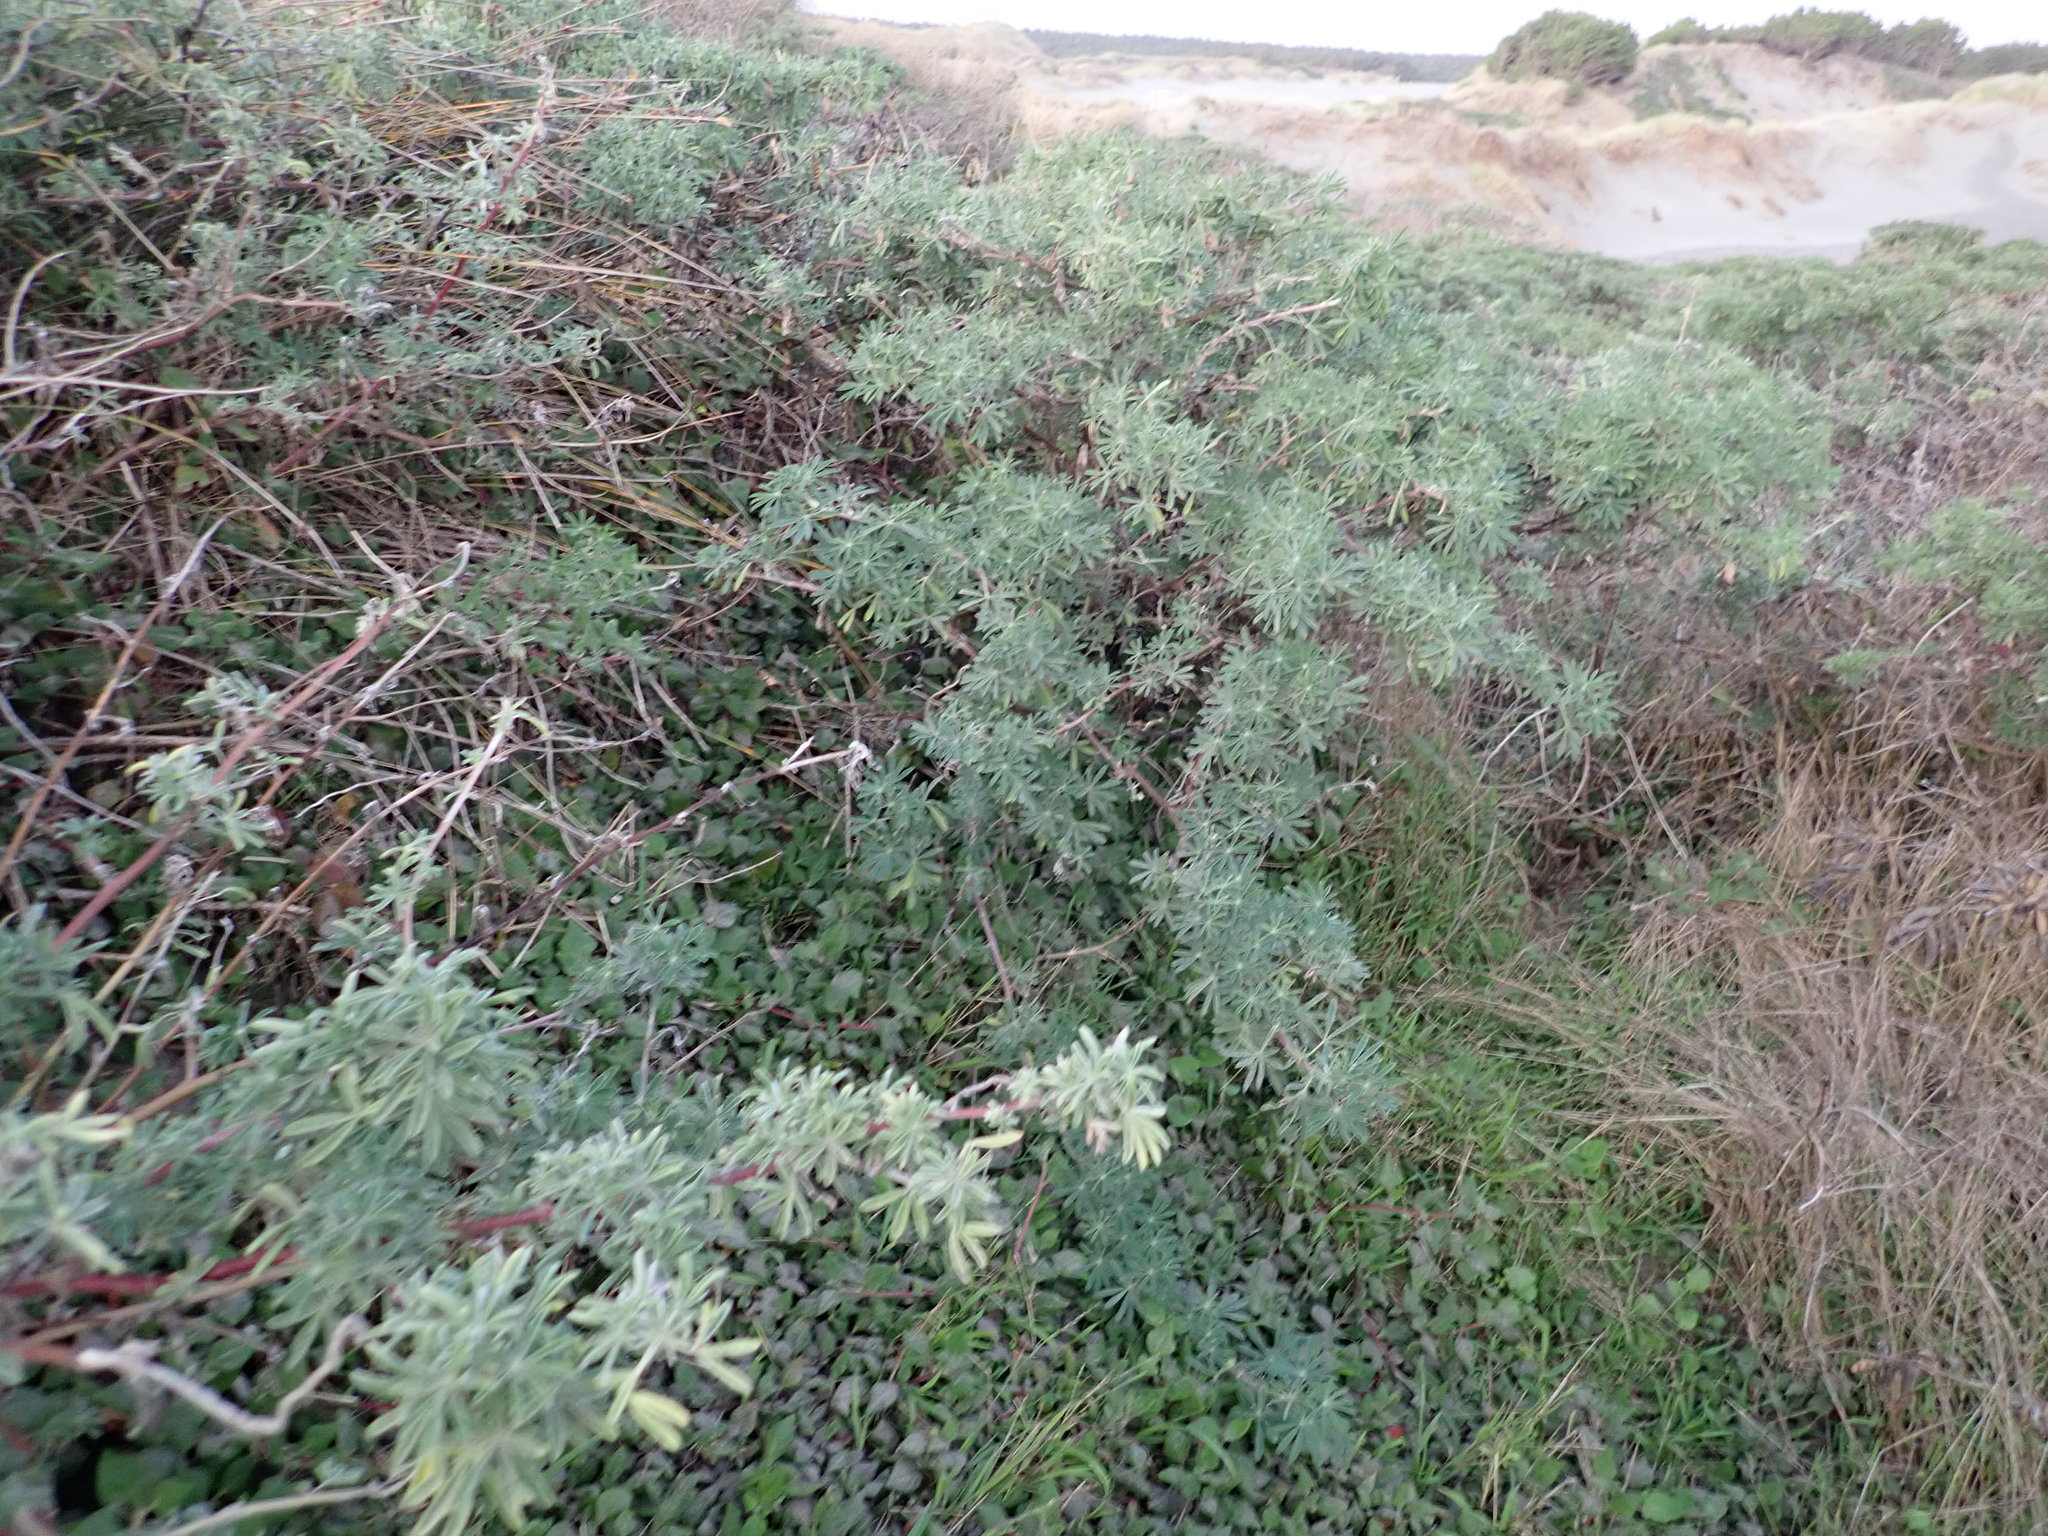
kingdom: Plantae
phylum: Tracheophyta
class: Magnoliopsida
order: Fabales
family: Fabaceae
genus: Lupinus
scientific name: Lupinus arboreus
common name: Yellow bush lupine
